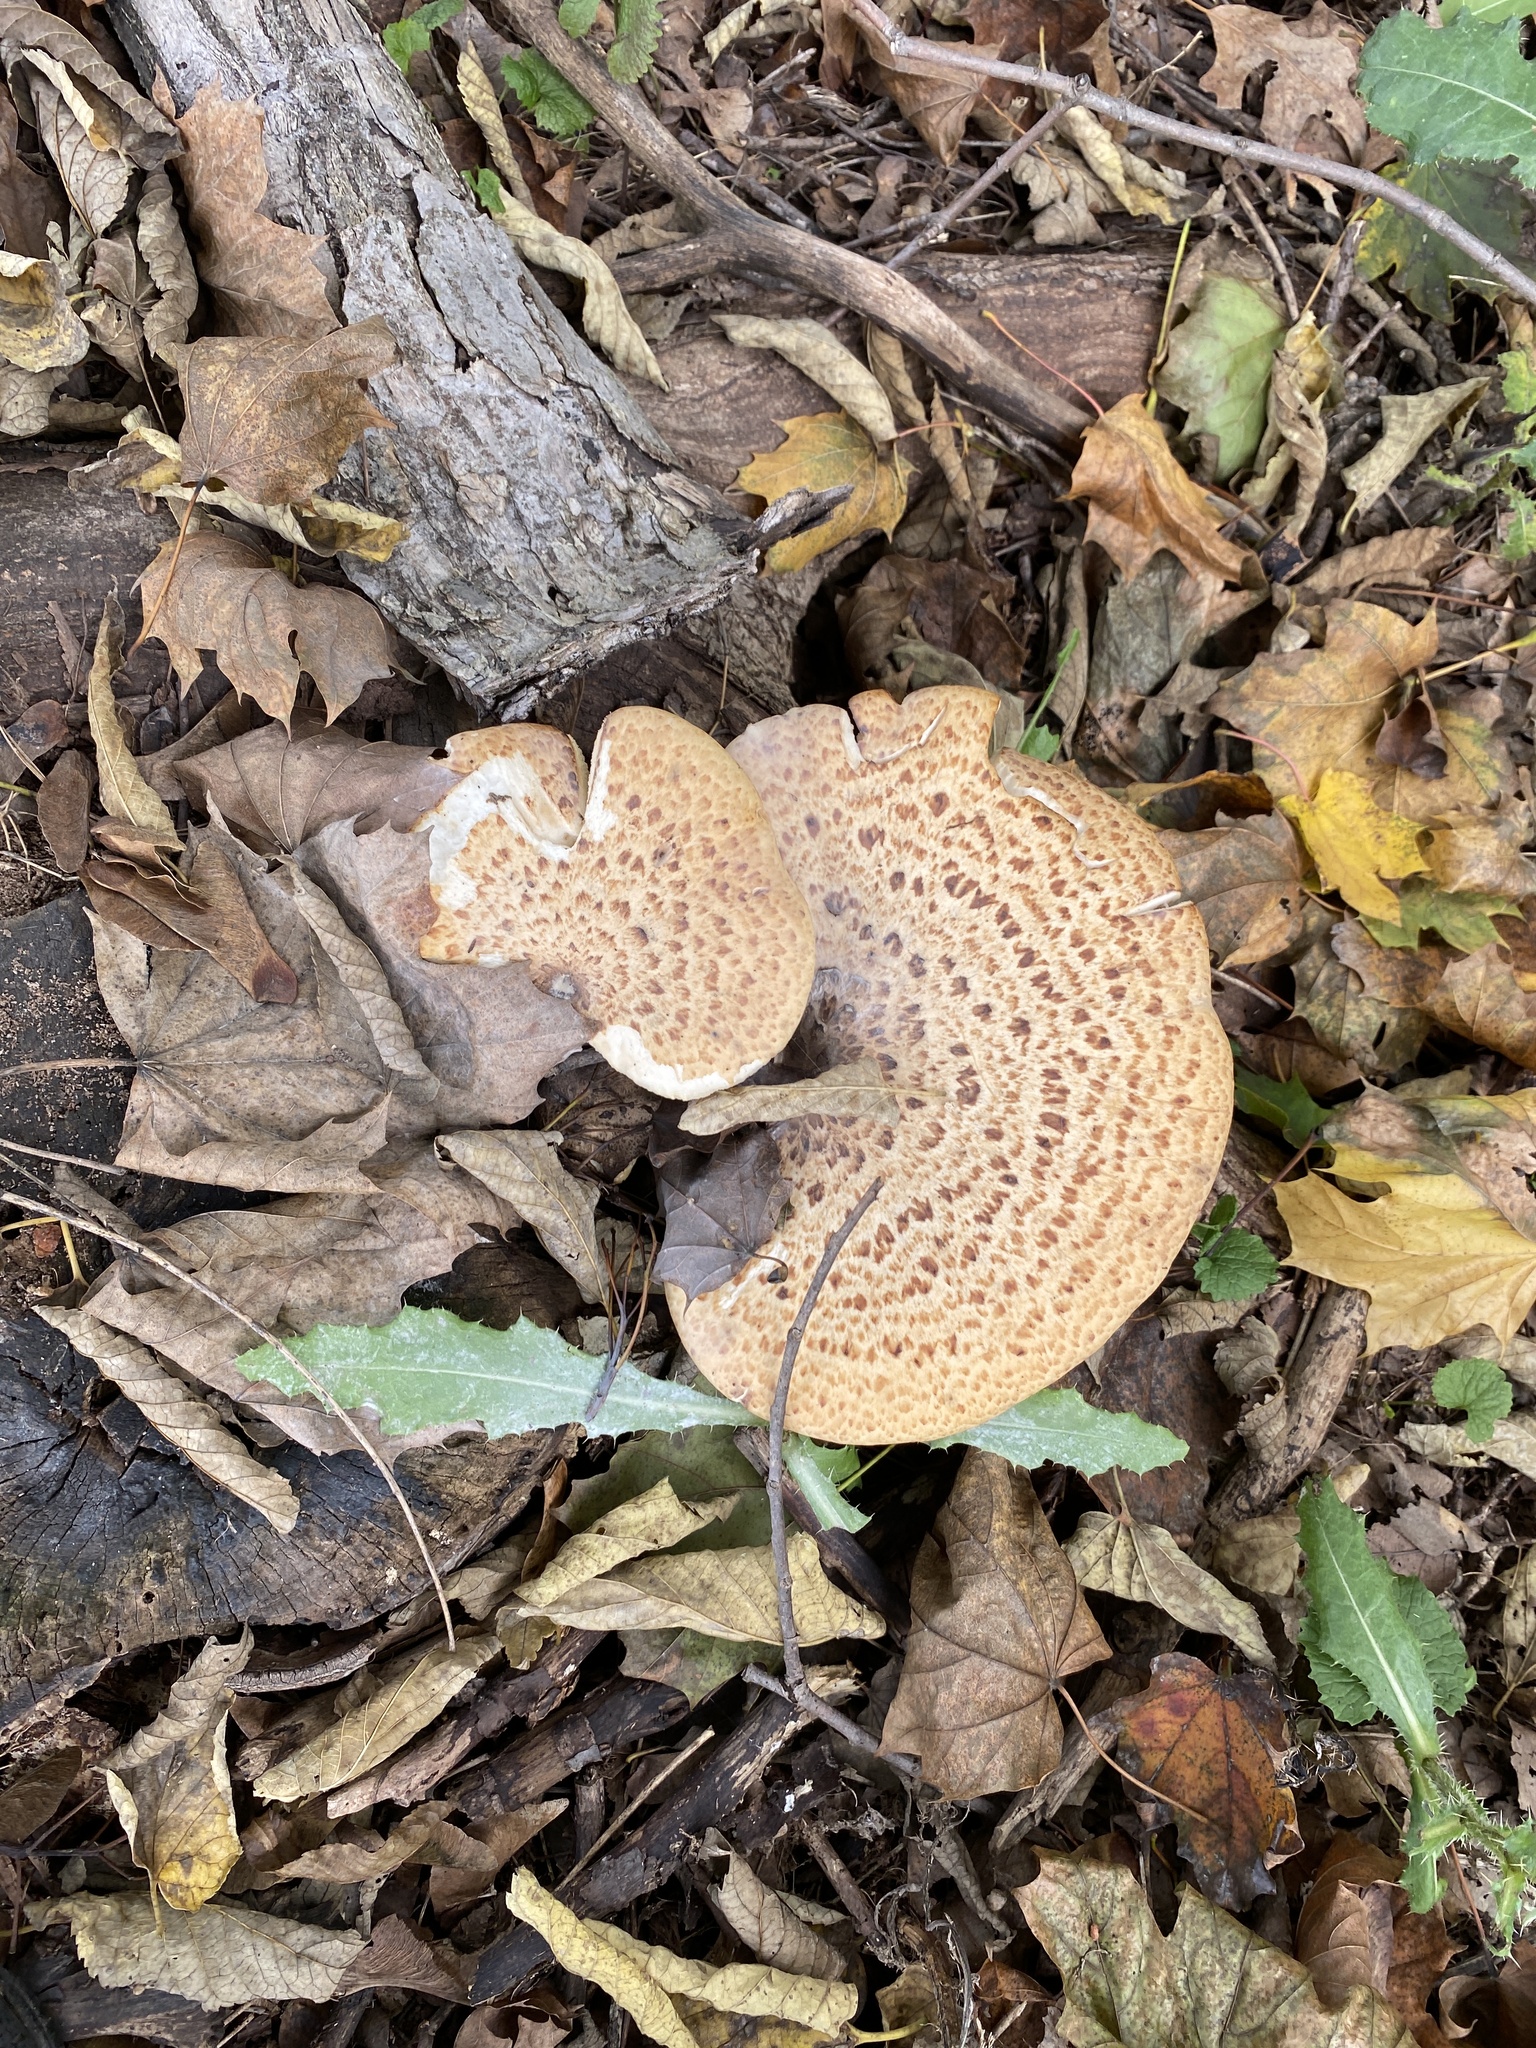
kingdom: Fungi
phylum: Basidiomycota
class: Agaricomycetes
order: Polyporales
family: Polyporaceae
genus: Cerioporus
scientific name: Cerioporus squamosus
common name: Dryad's saddle
